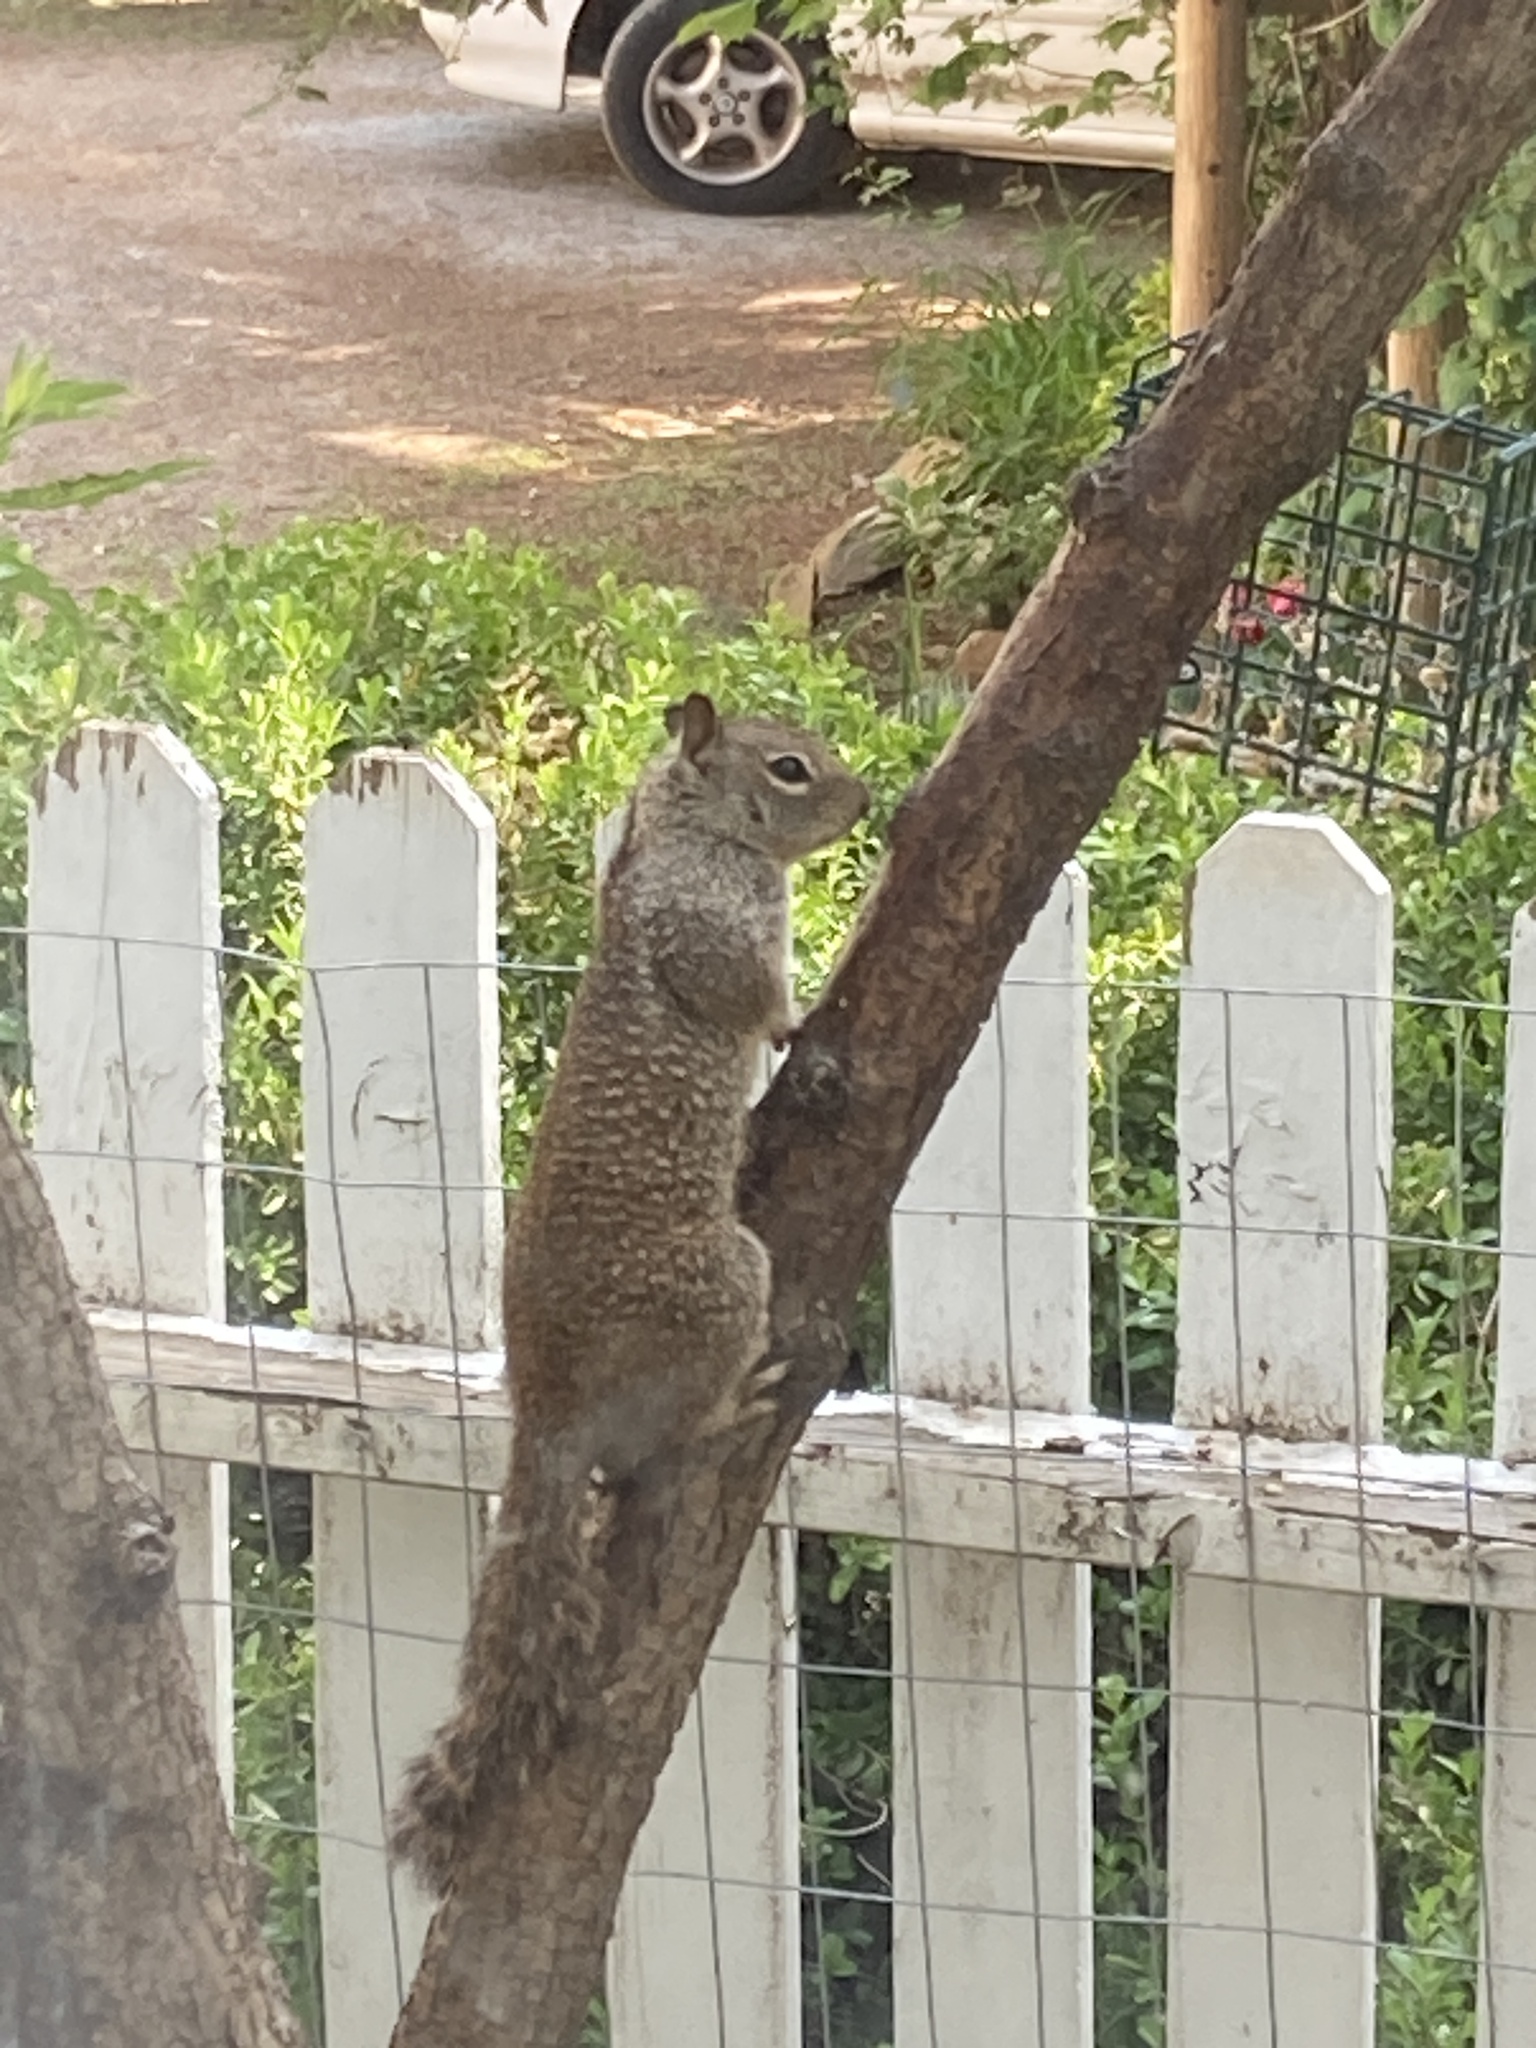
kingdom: Animalia
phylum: Chordata
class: Mammalia
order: Rodentia
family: Sciuridae
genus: Otospermophilus
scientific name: Otospermophilus beecheyi
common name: California ground squirrel
